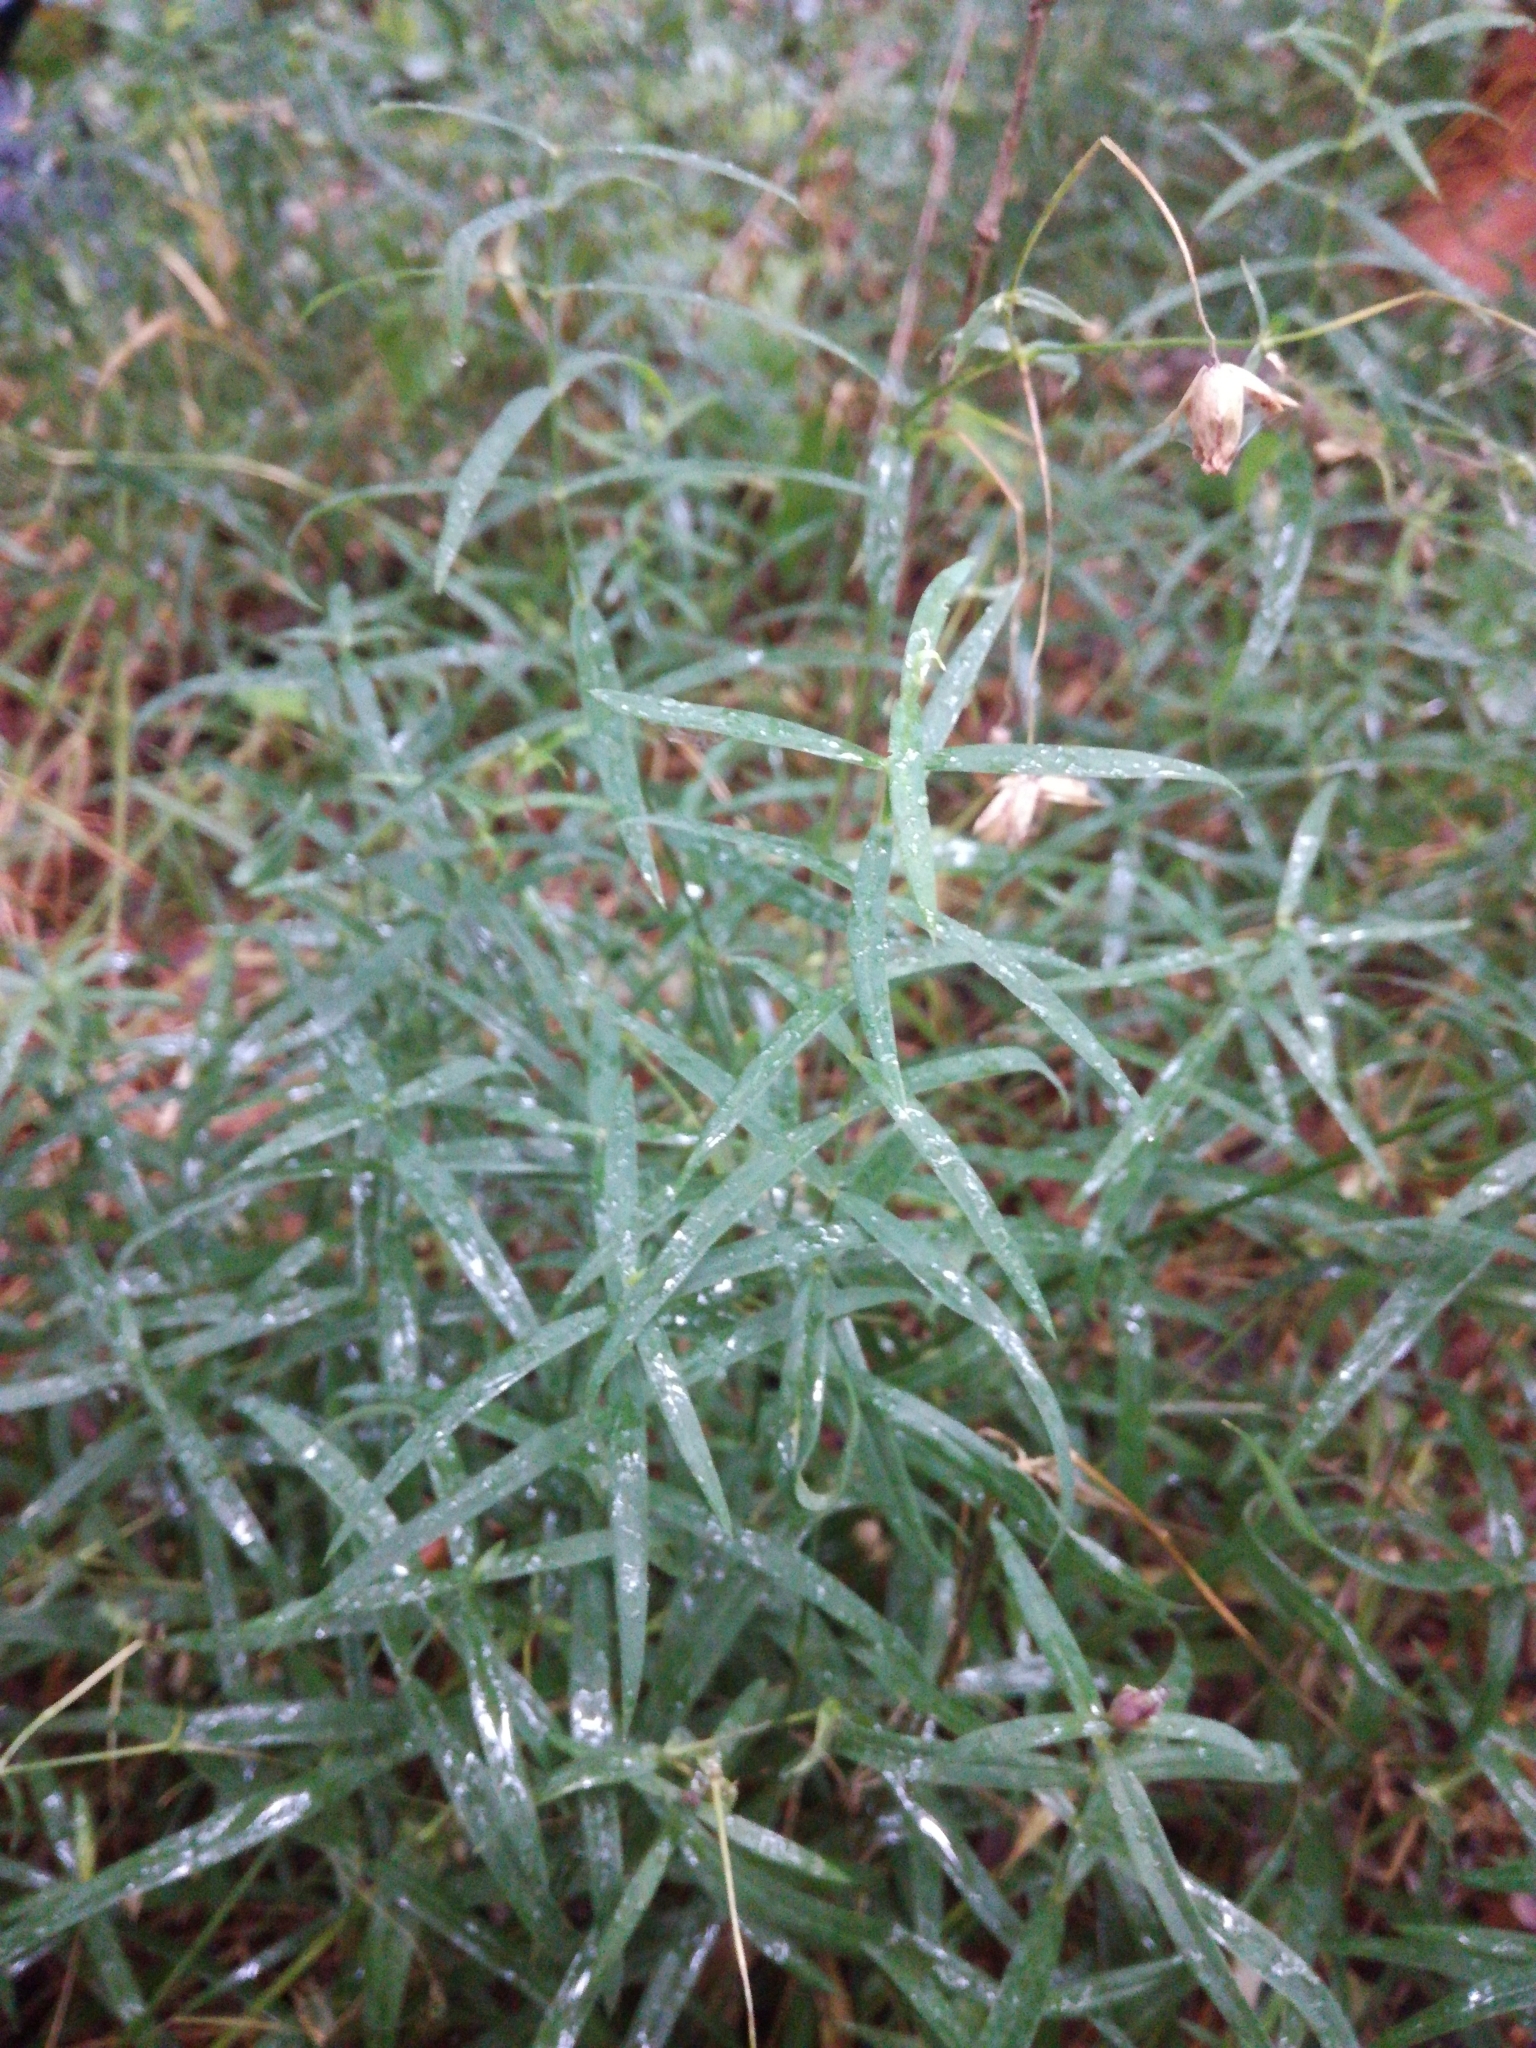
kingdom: Plantae
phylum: Tracheophyta
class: Magnoliopsida
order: Caryophyllales
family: Caryophyllaceae
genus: Rabelera
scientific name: Rabelera holostea
